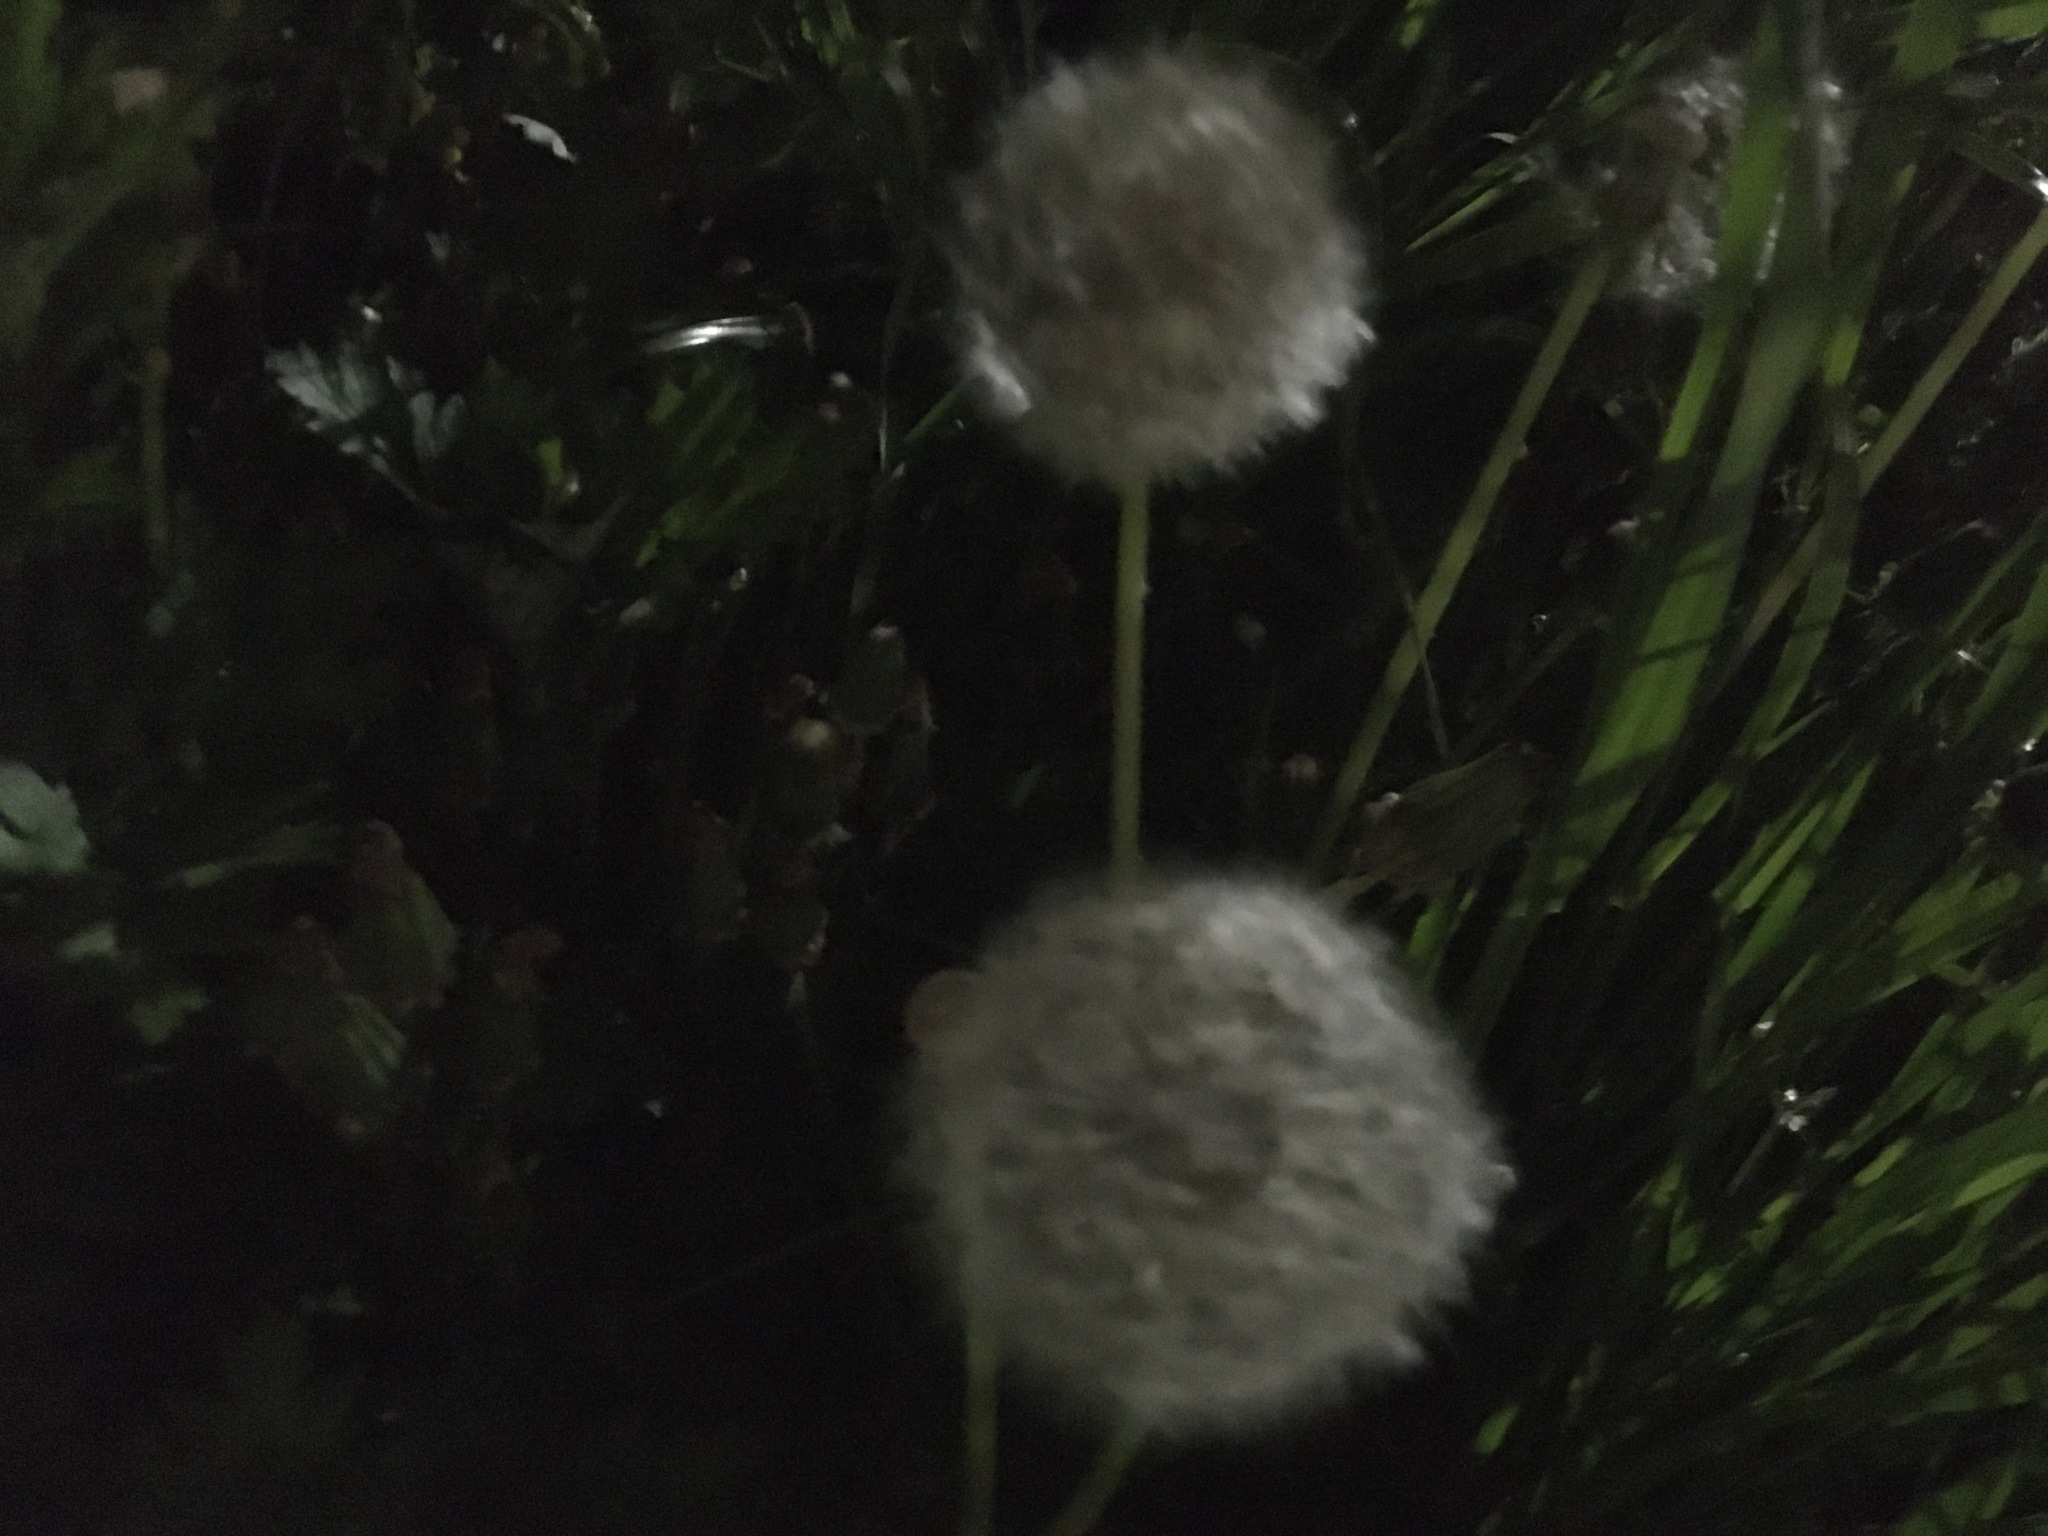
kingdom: Plantae
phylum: Tracheophyta
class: Magnoliopsida
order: Asterales
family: Asteraceae
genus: Taraxacum
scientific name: Taraxacum officinale
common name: Common dandelion
